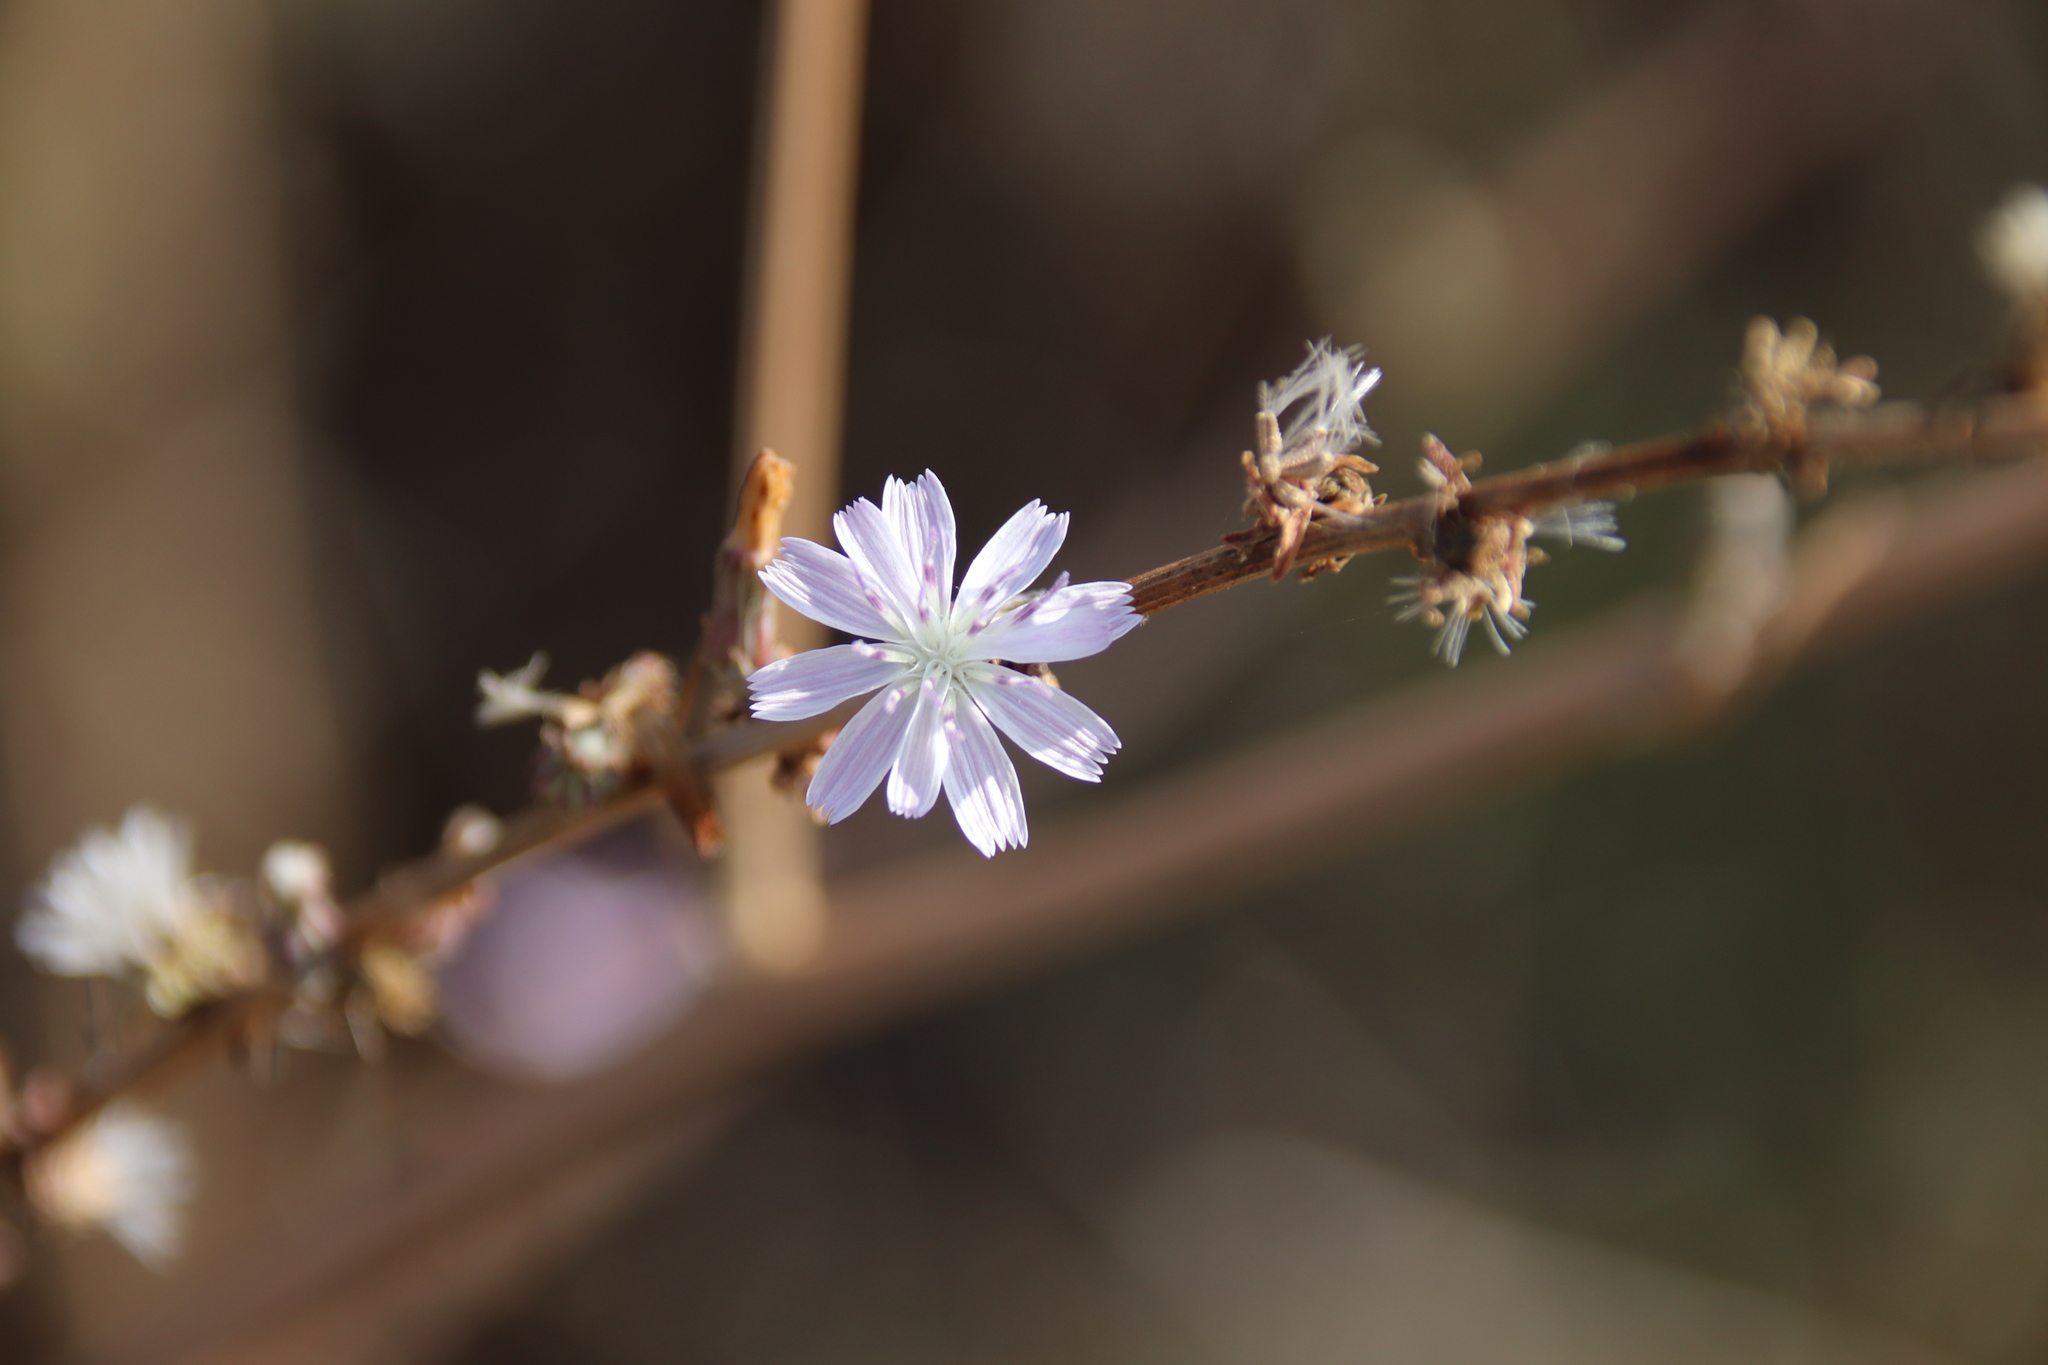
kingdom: Plantae
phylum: Tracheophyta
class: Magnoliopsida
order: Asterales
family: Asteraceae
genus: Stephanomeria
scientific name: Stephanomeria diegensis
